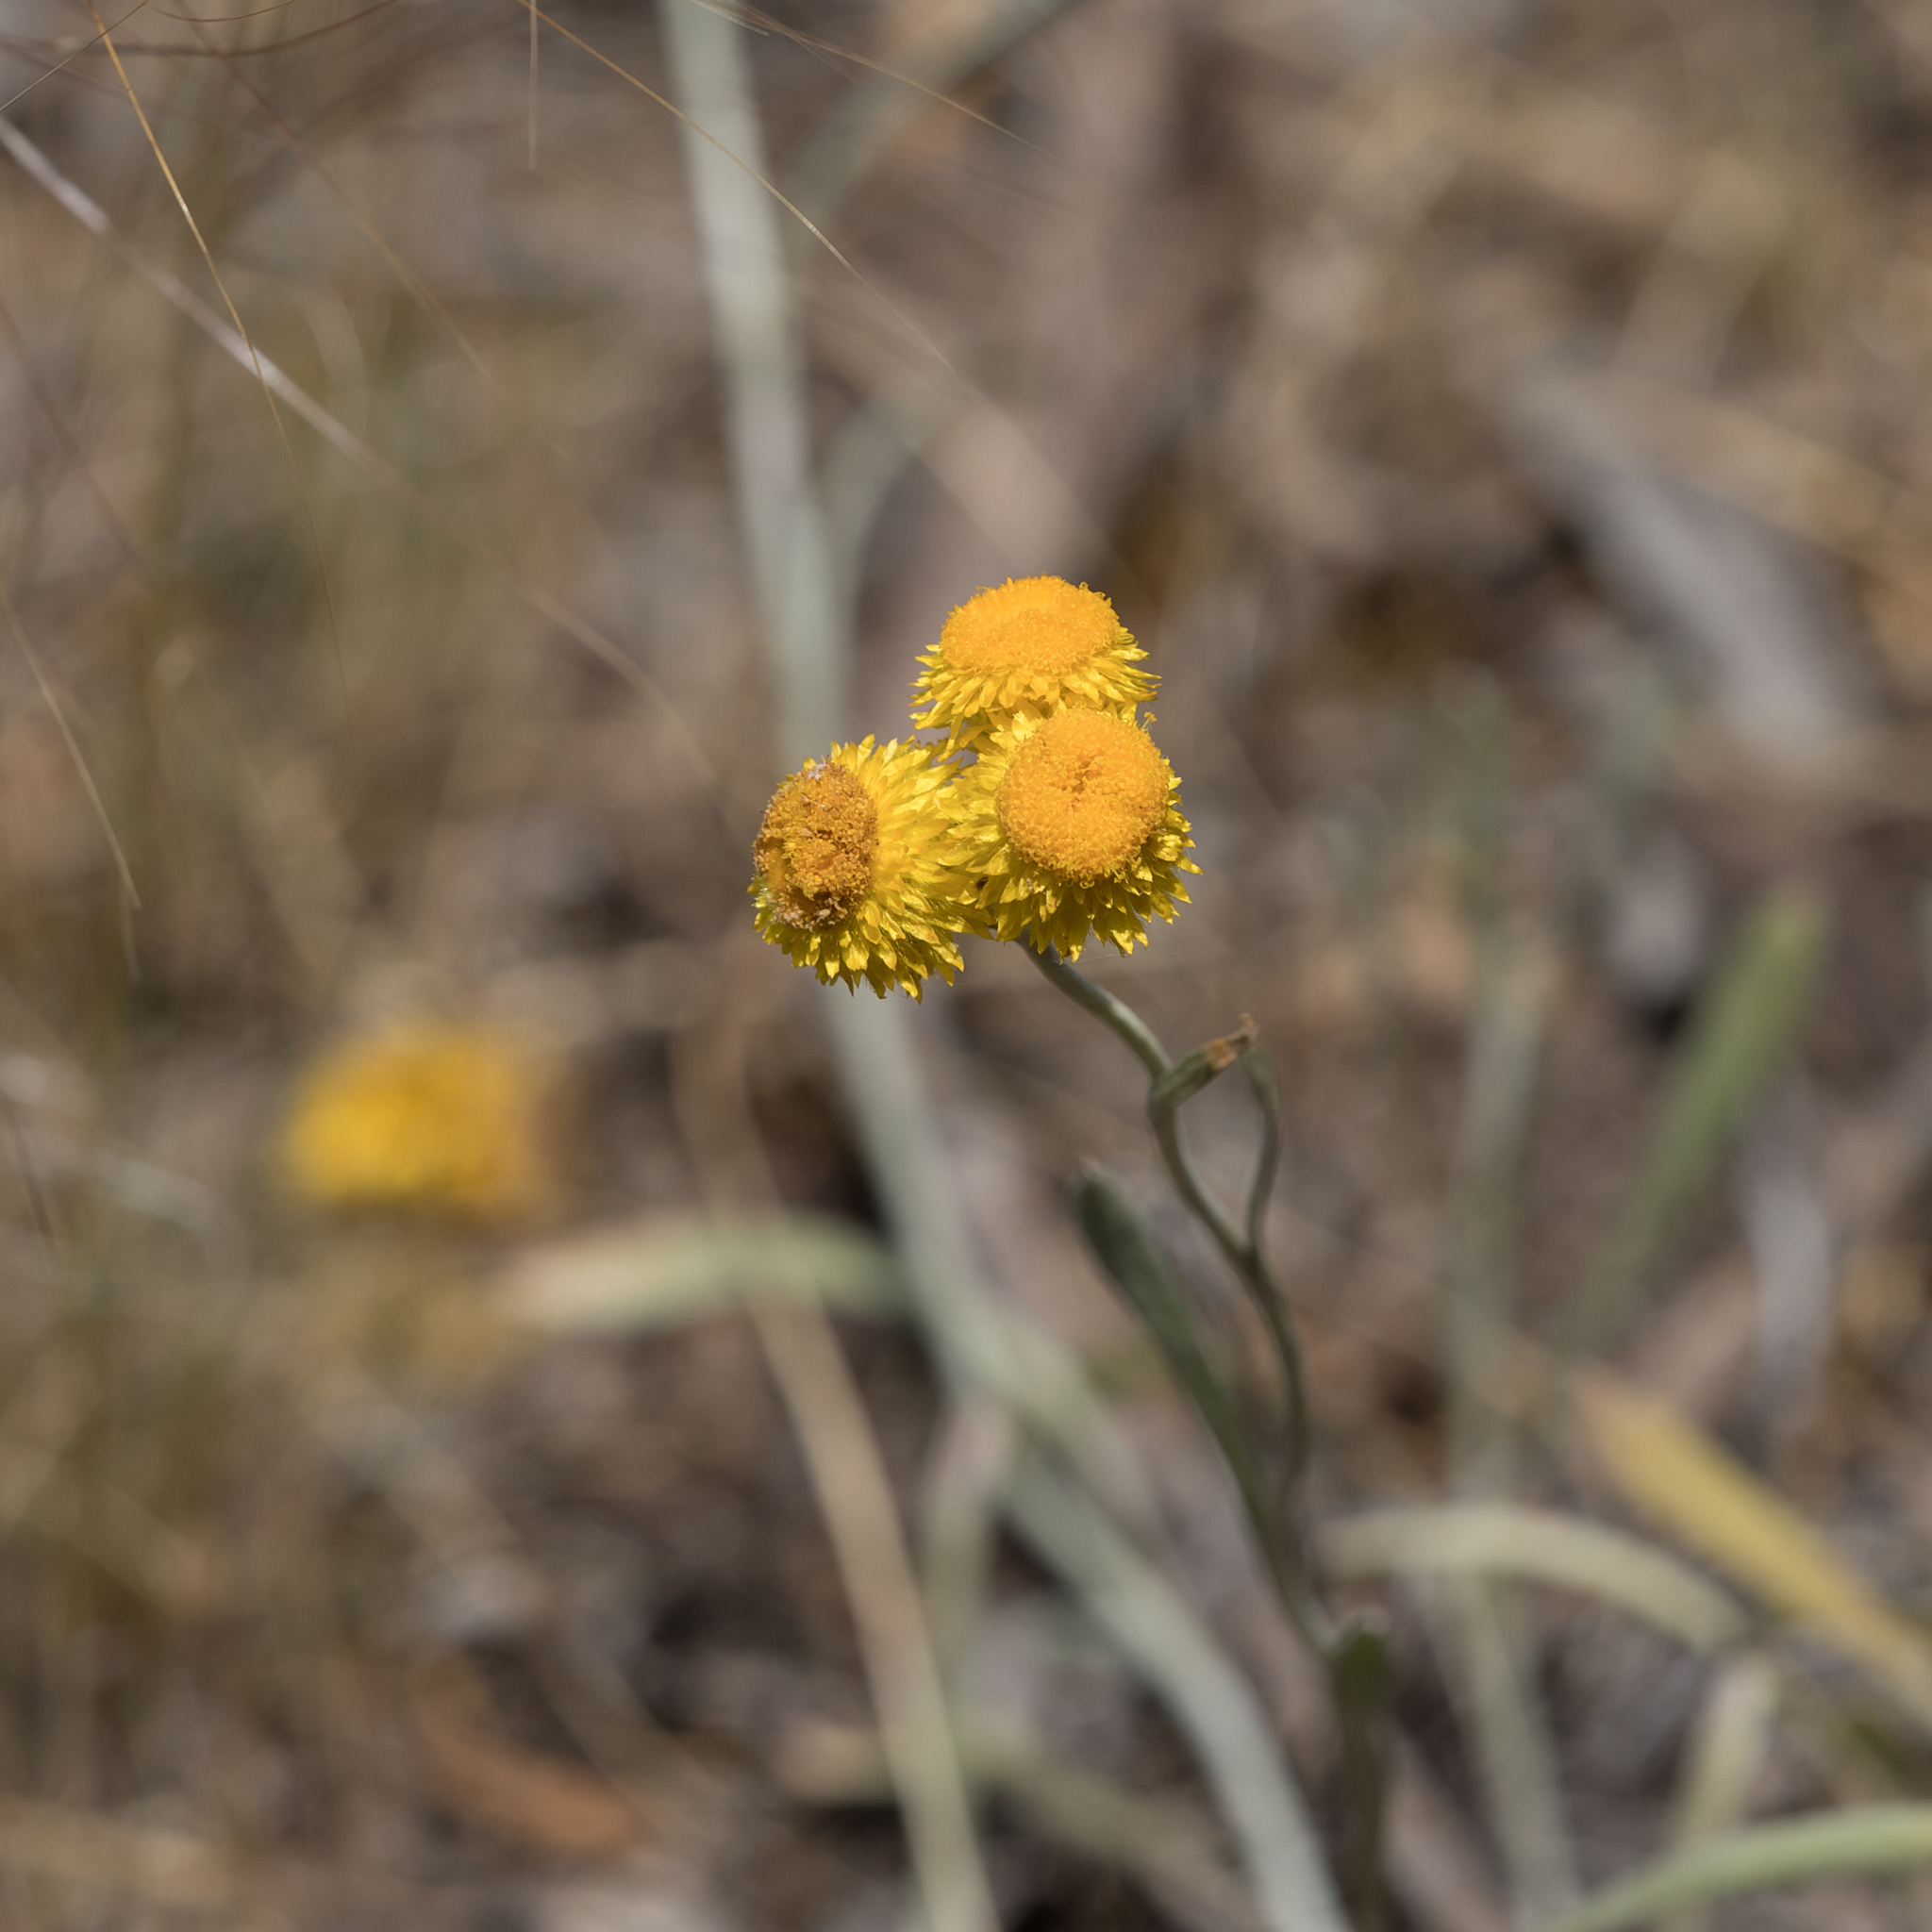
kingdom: Plantae
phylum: Tracheophyta
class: Magnoliopsida
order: Asterales
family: Asteraceae
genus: Chrysocephalum
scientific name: Chrysocephalum apiculatum
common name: Common everlasting
